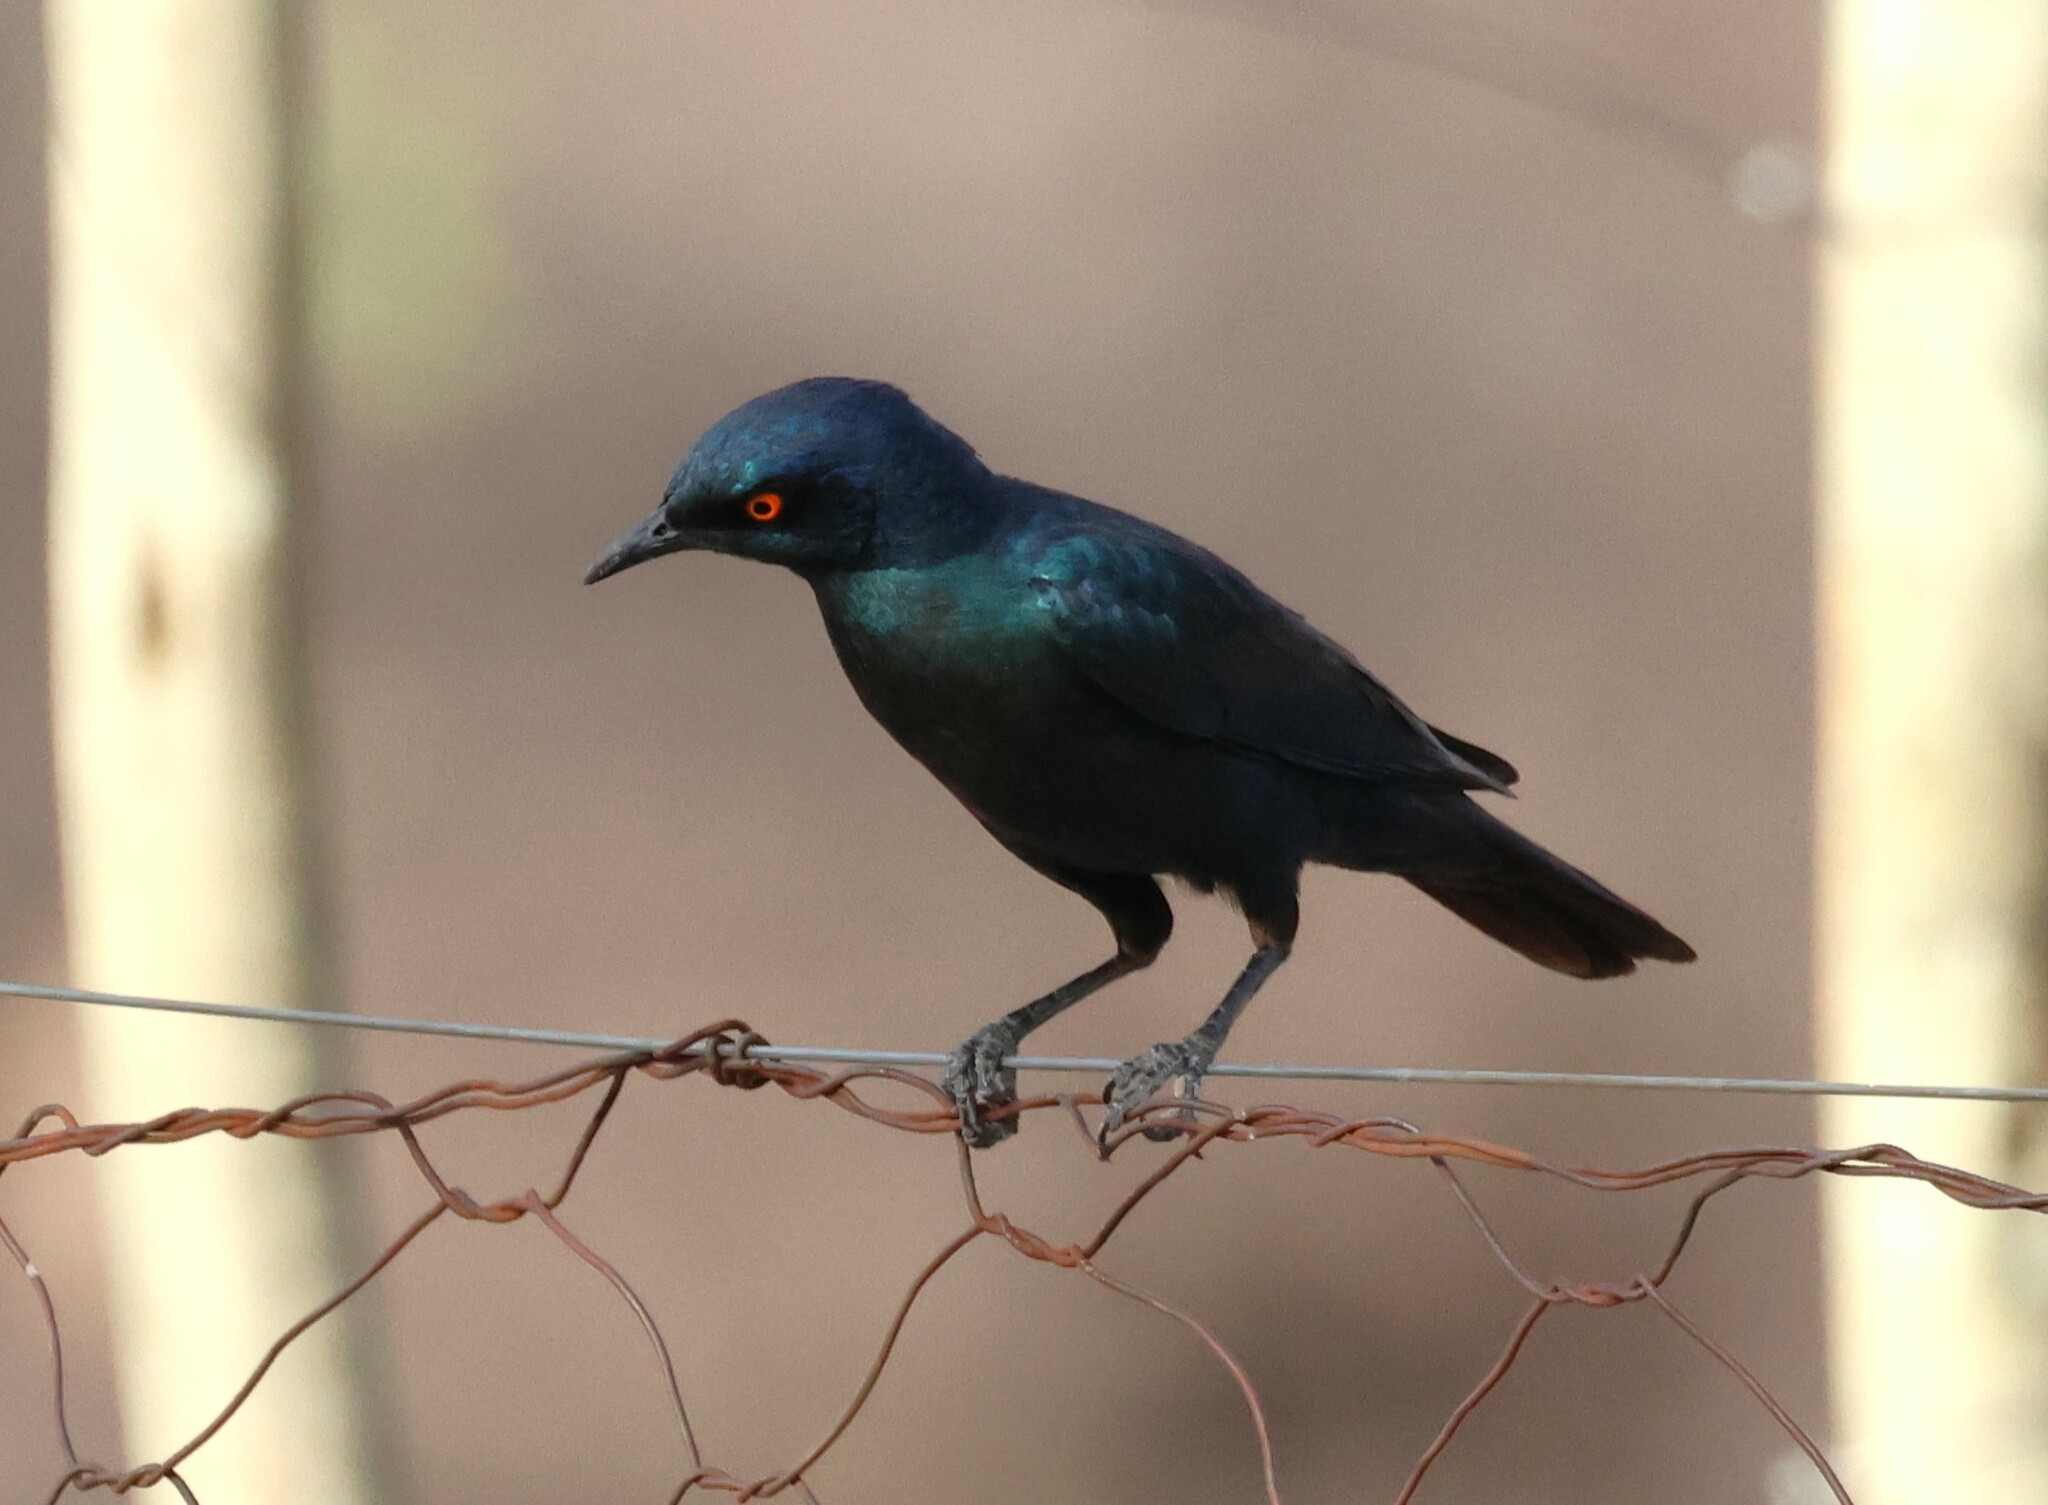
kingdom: Animalia
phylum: Chordata
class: Aves
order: Passeriformes
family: Sturnidae
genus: Lamprotornis
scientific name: Lamprotornis nitens
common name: Cape starling
